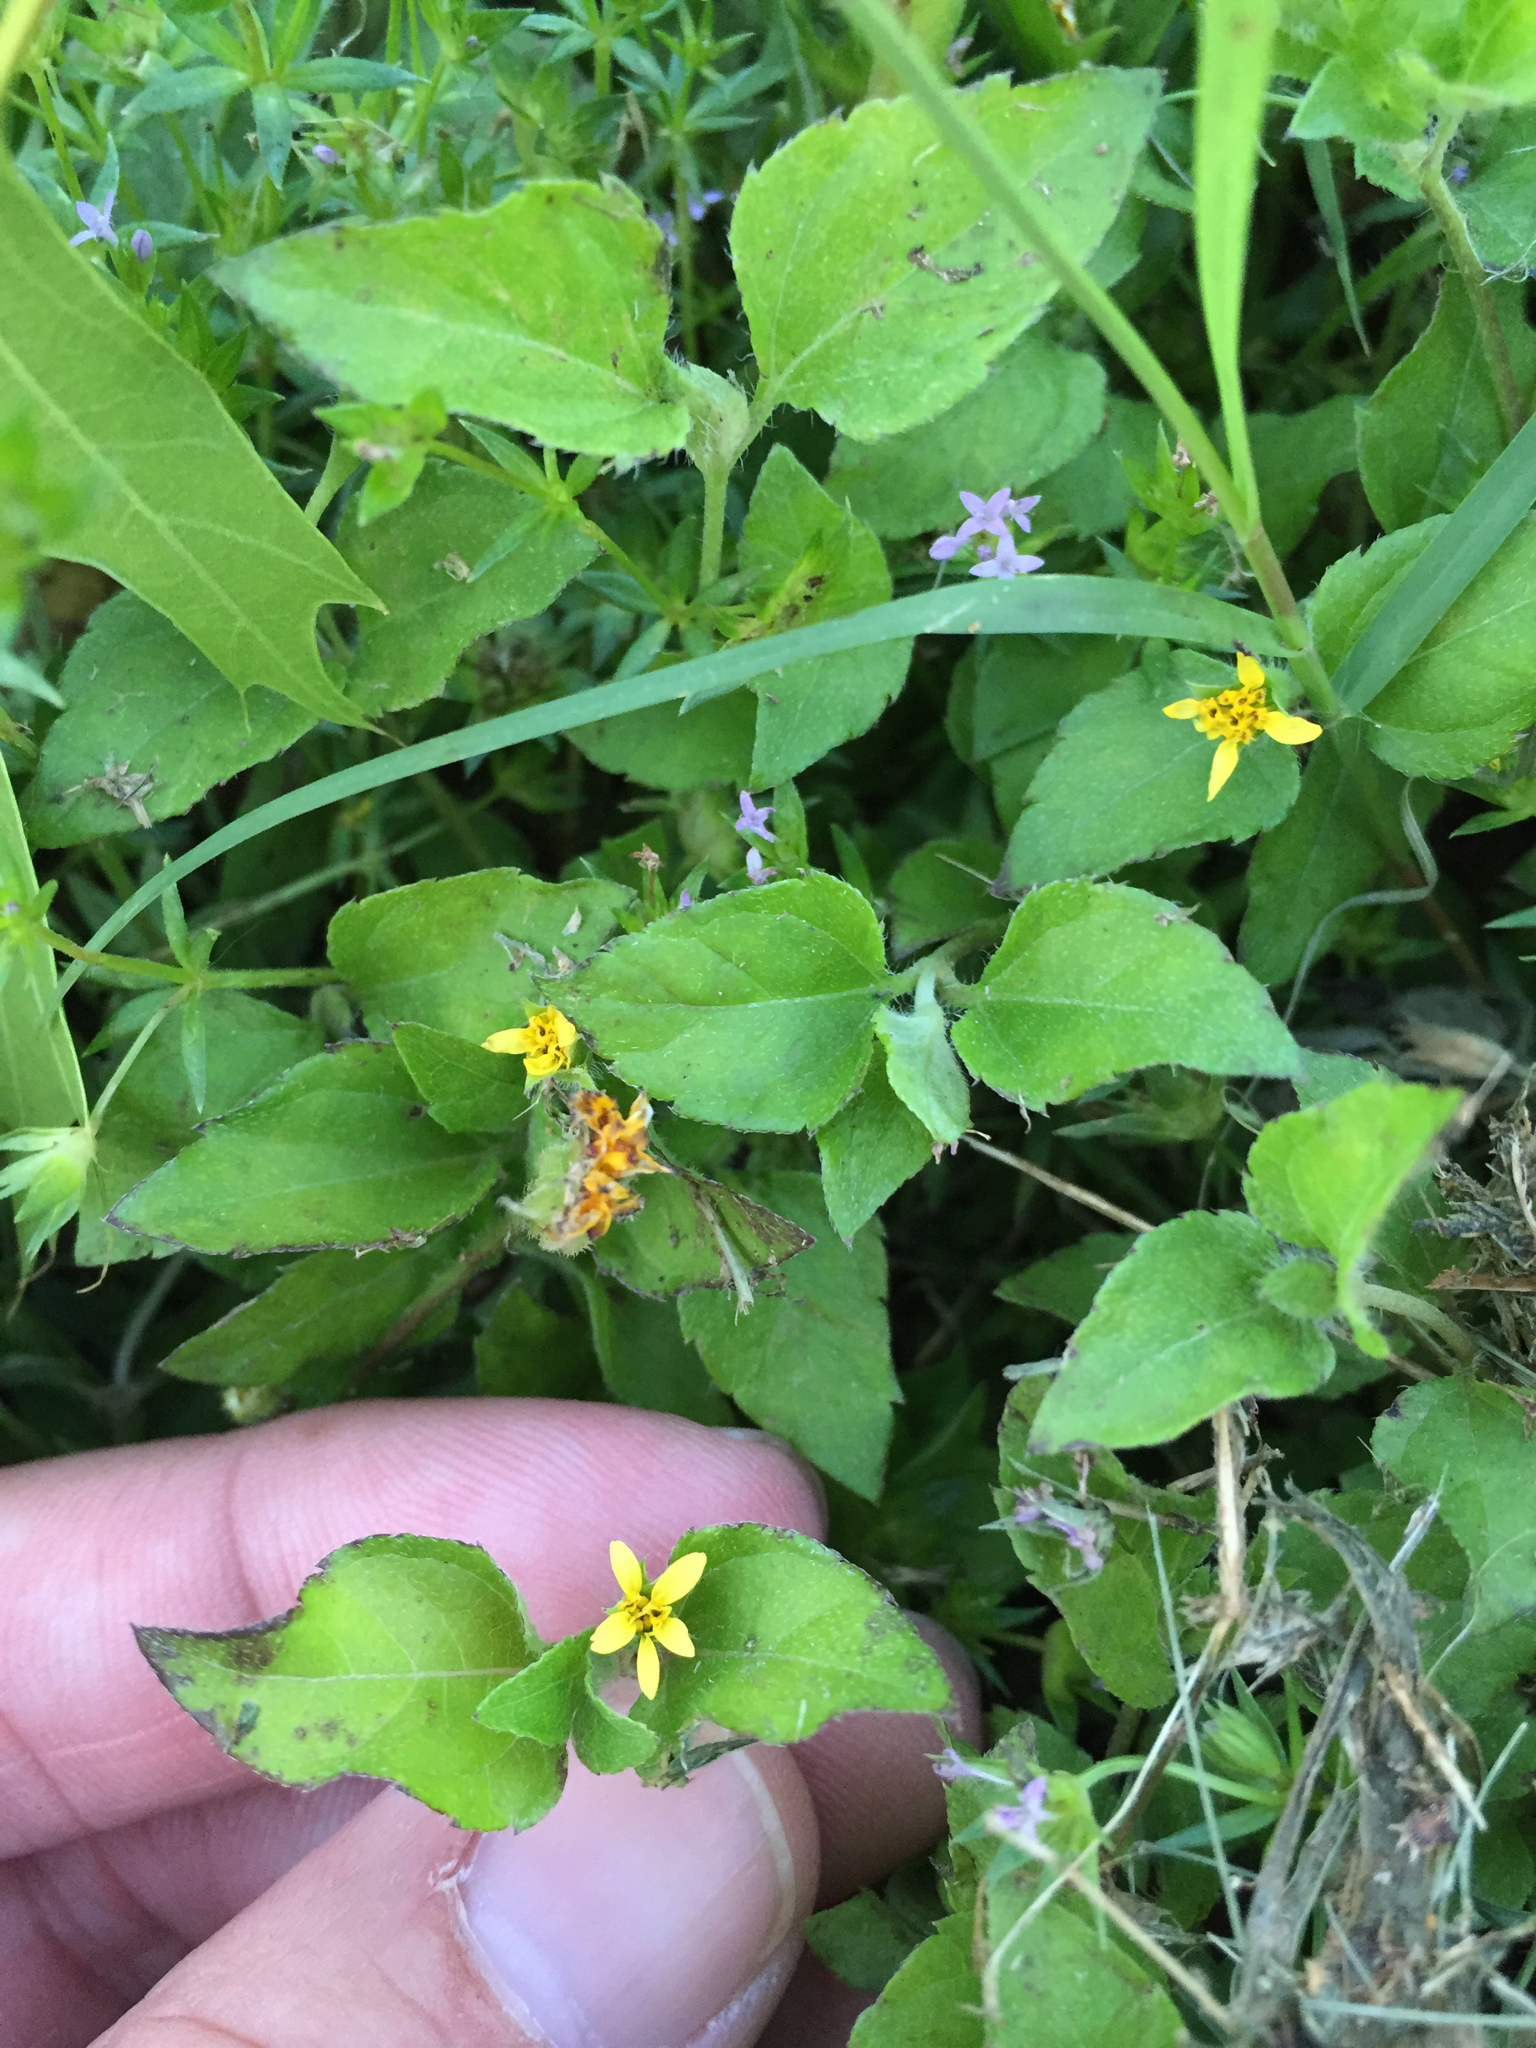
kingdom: Plantae
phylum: Tracheophyta
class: Magnoliopsida
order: Asterales
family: Asteraceae
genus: Calyptocarpus
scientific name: Calyptocarpus vialis
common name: Straggler daisy
